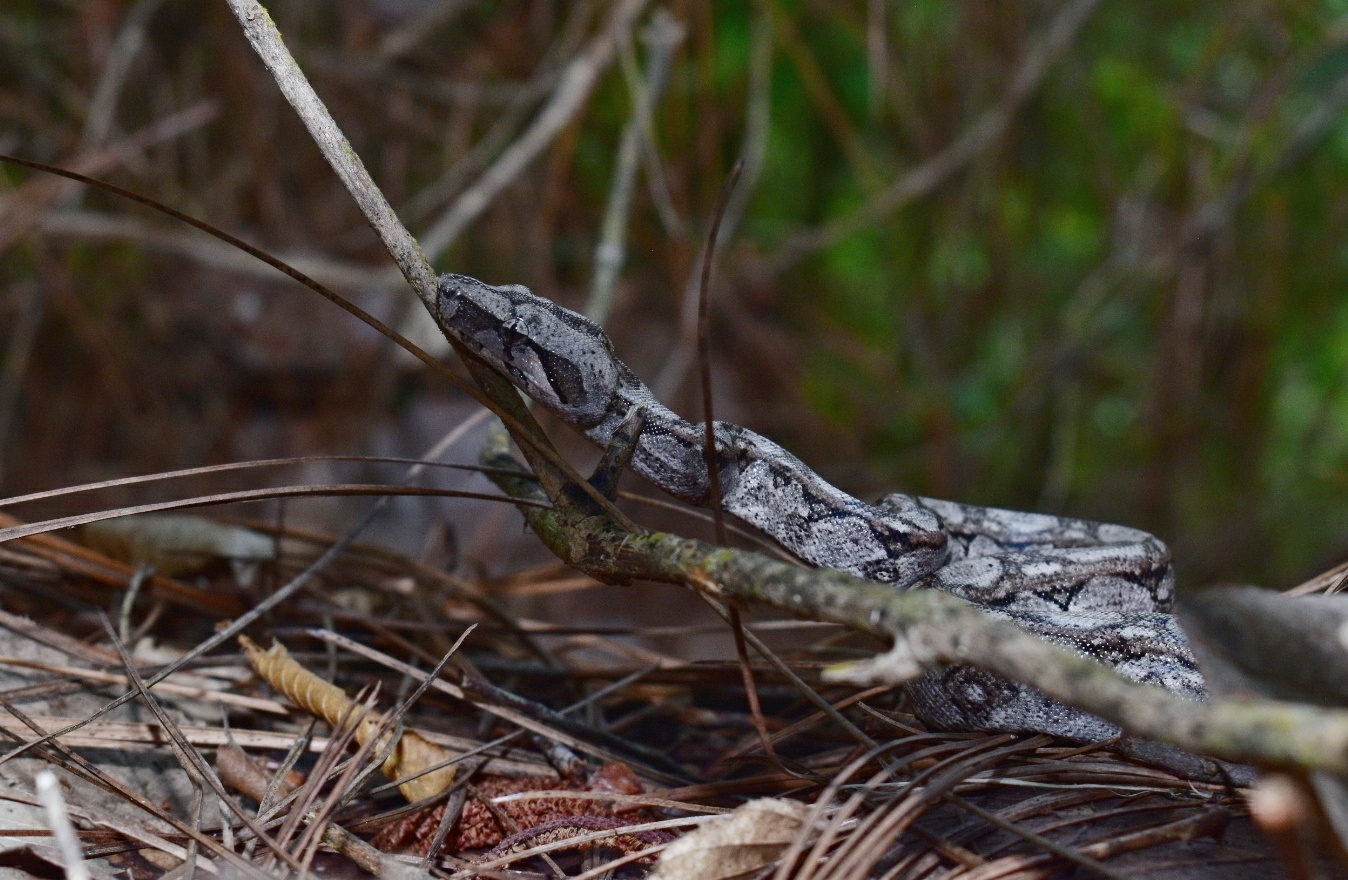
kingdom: Animalia
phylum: Chordata
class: Squamata
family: Boidae
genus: Boa
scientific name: Boa
